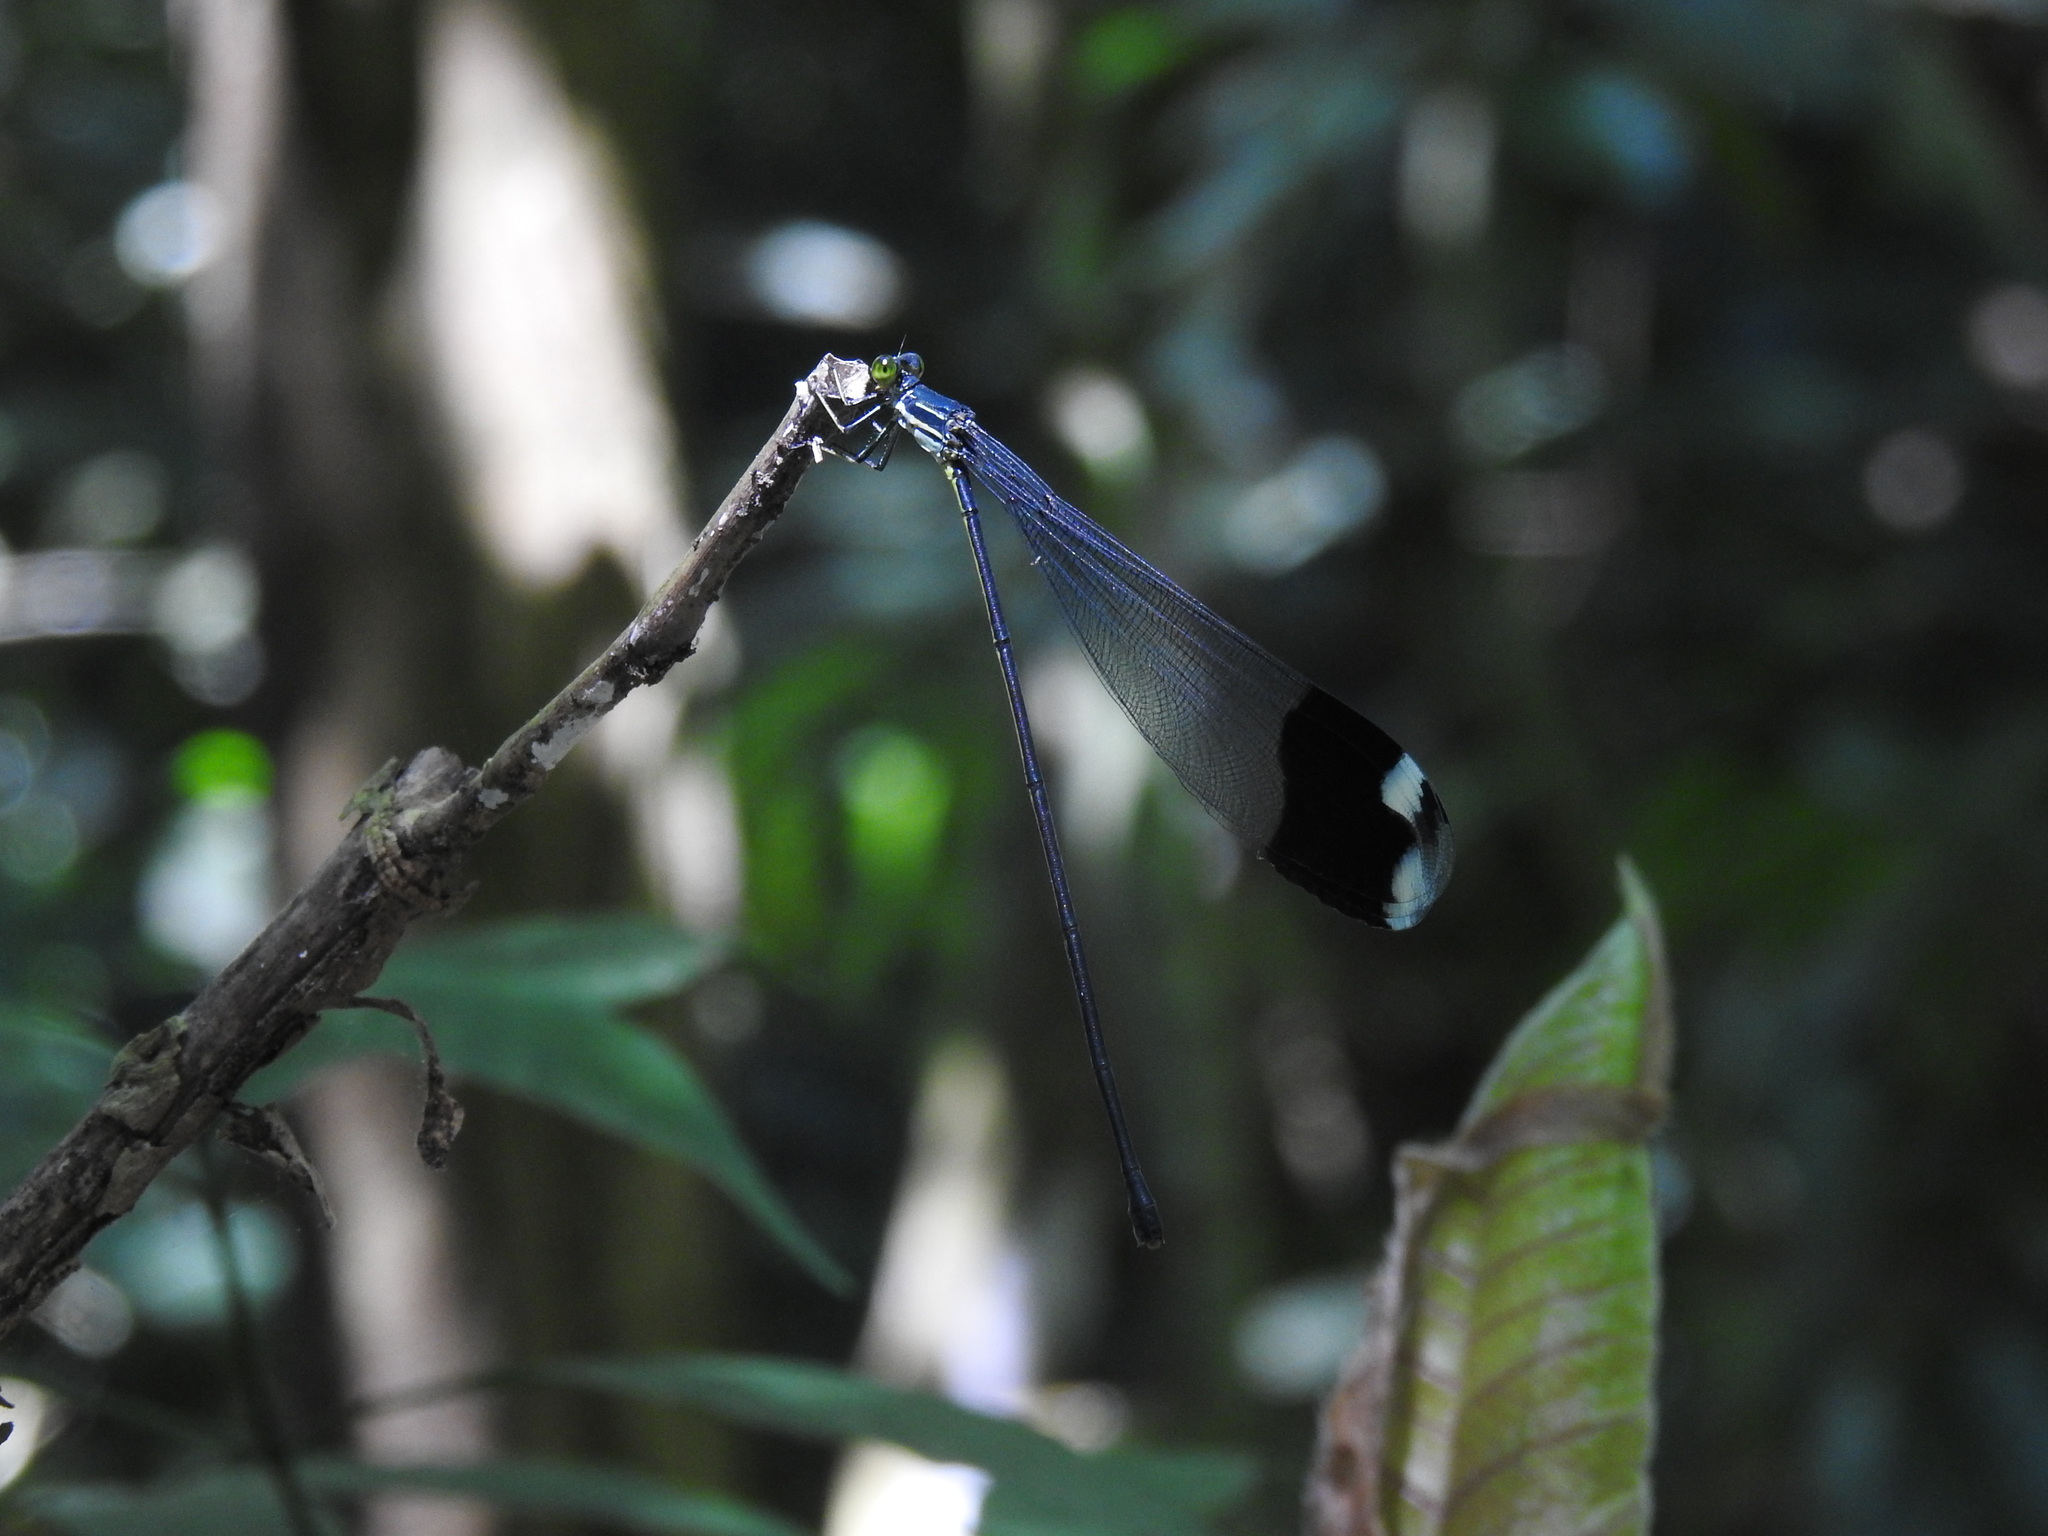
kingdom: Animalia
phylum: Arthropoda
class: Insecta
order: Odonata
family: Coenagrionidae
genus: Megaloprepus
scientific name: Megaloprepus diaboli
